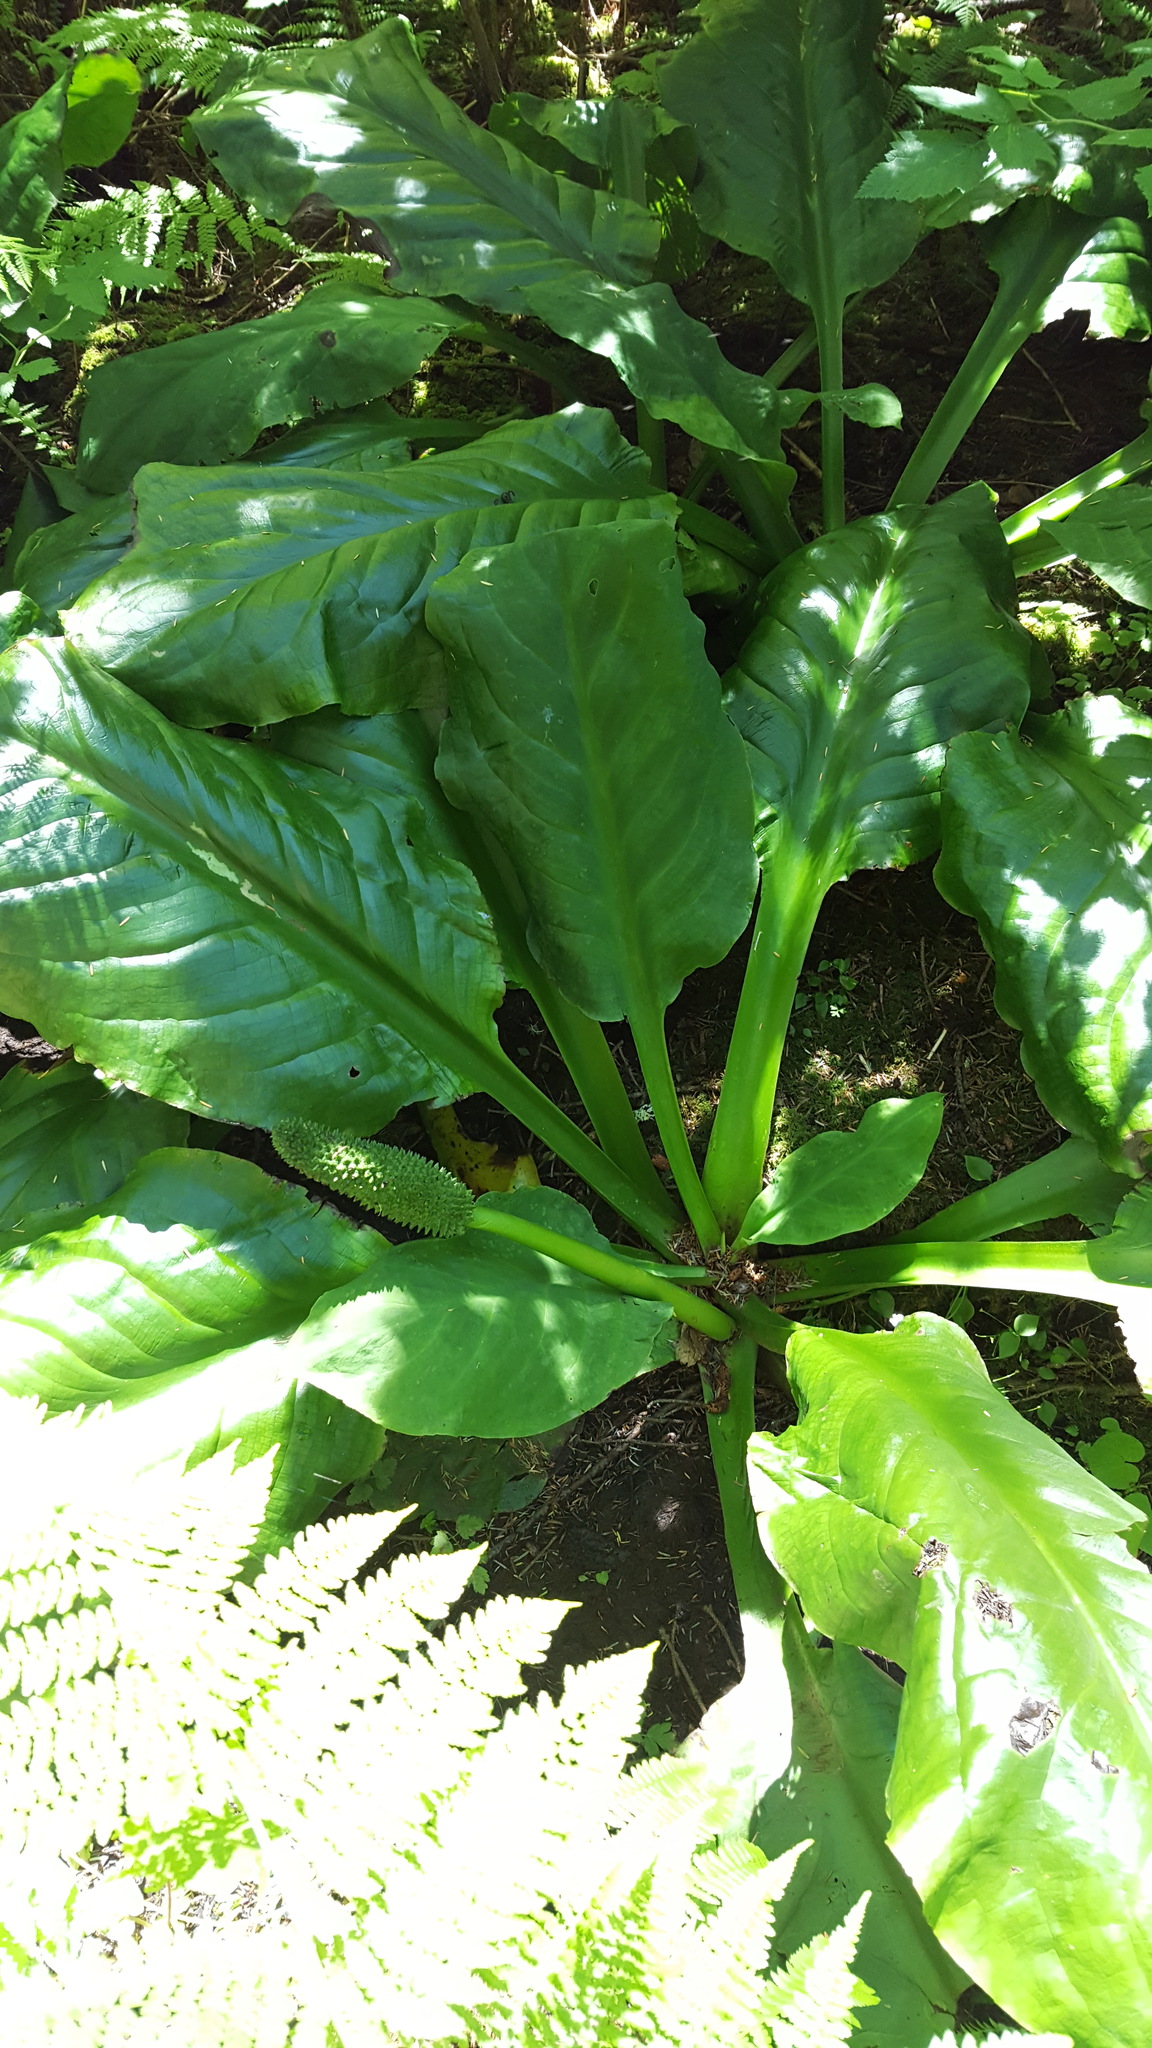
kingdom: Plantae
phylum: Tracheophyta
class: Liliopsida
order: Alismatales
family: Araceae
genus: Lysichiton
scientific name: Lysichiton americanus
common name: American skunk cabbage
